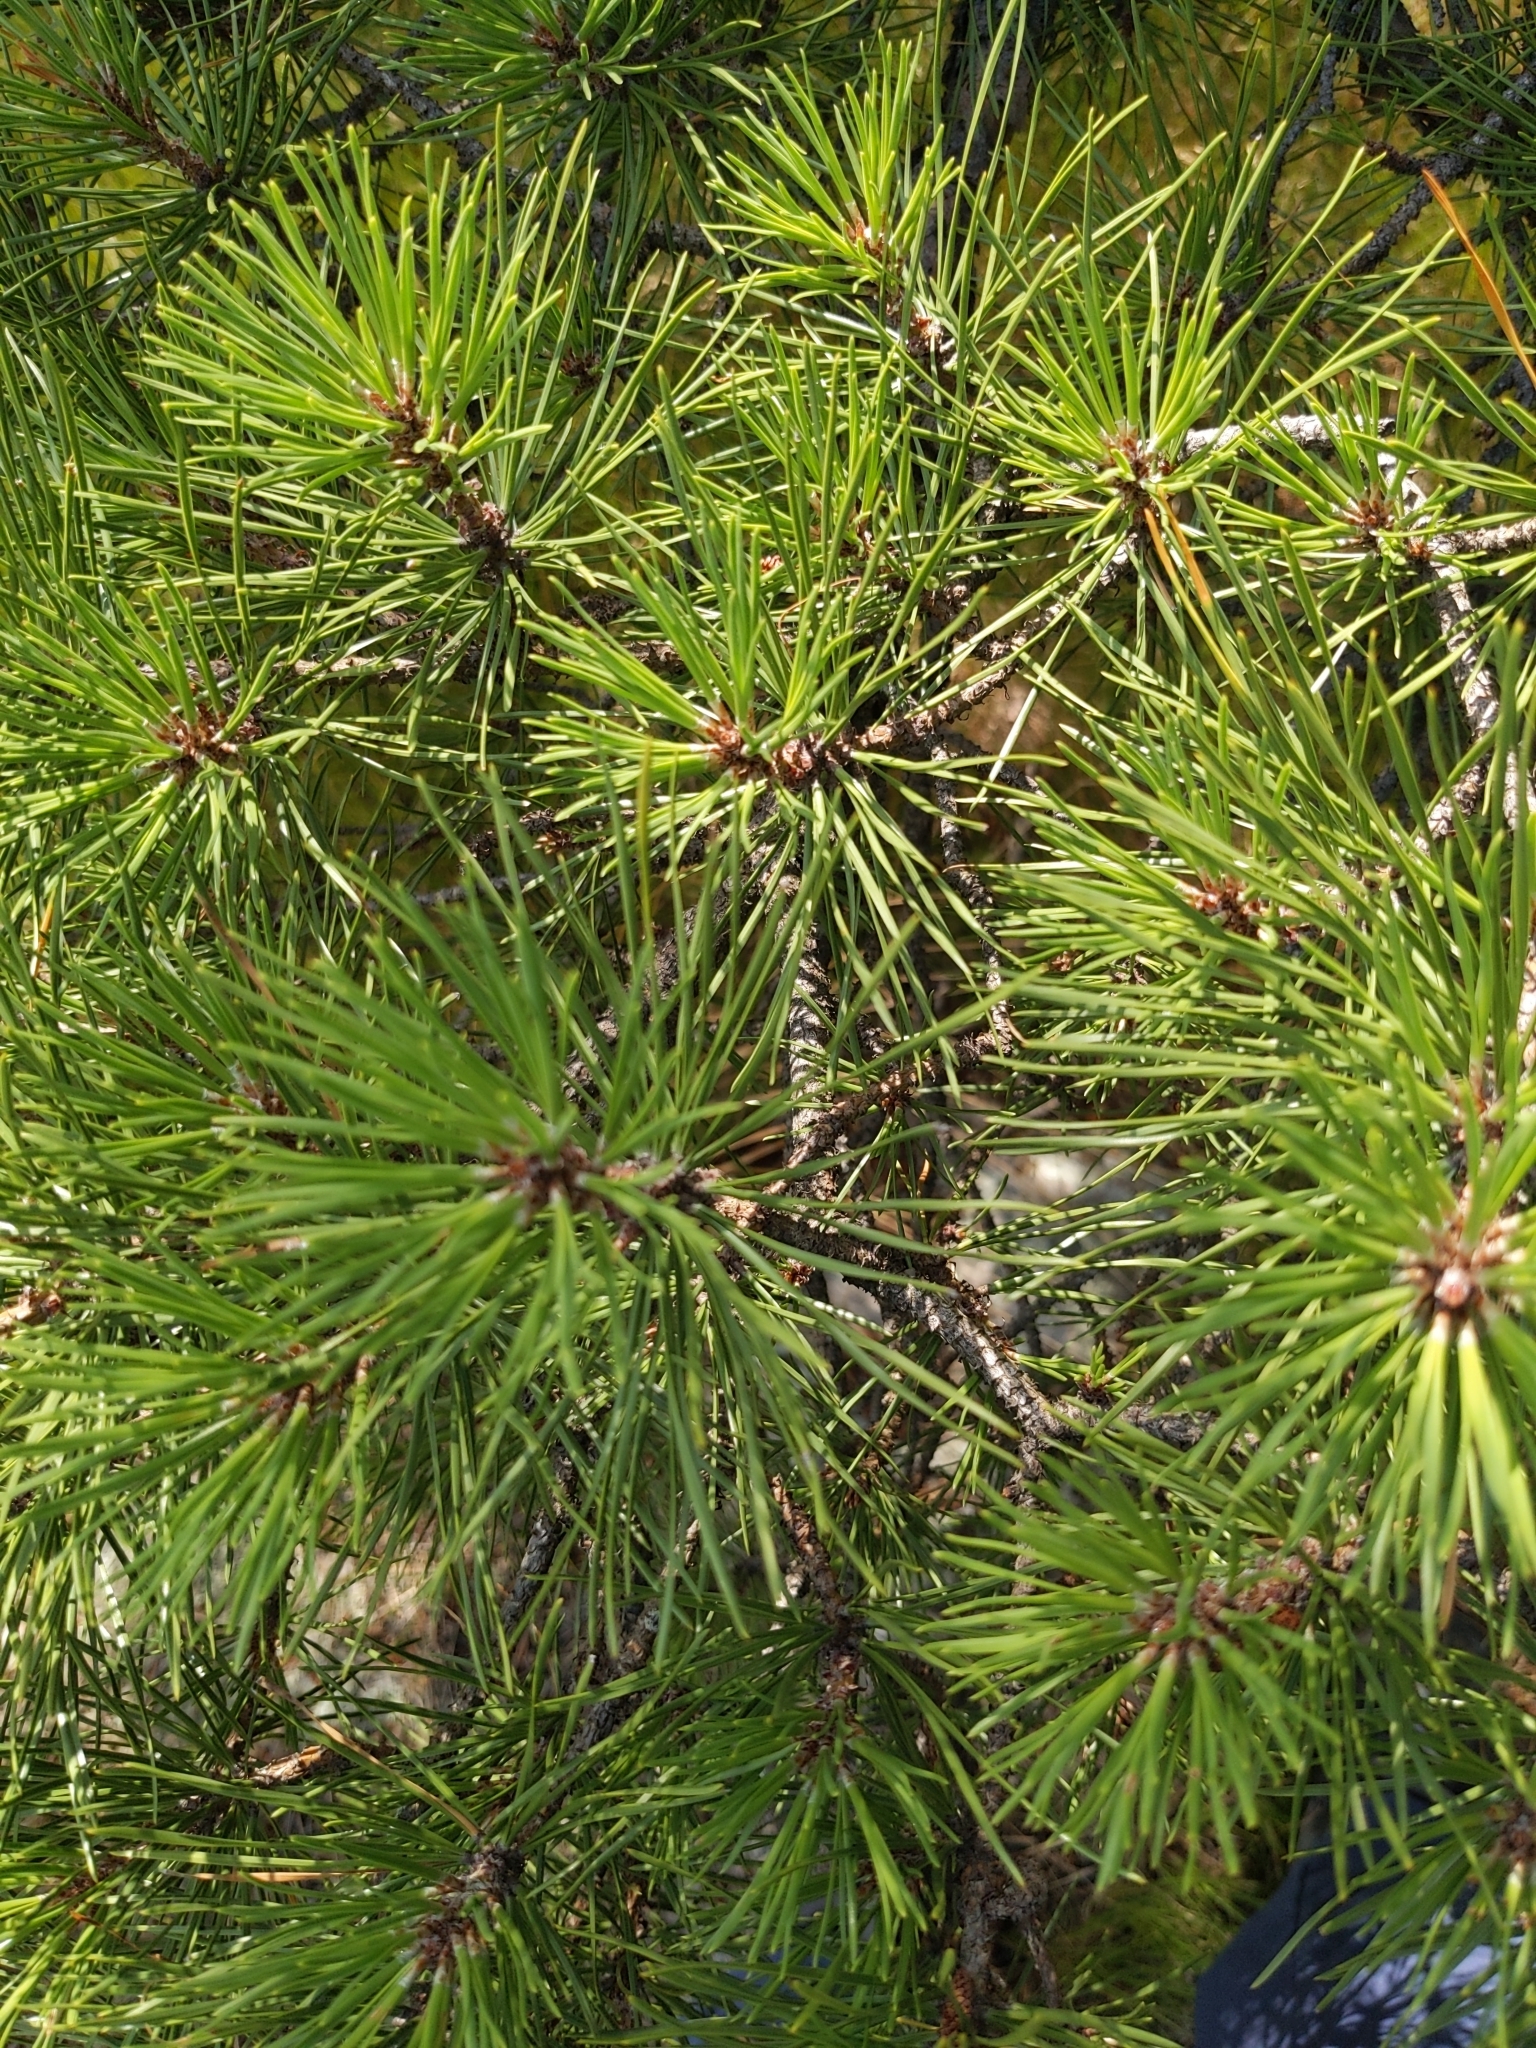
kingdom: Plantae
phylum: Tracheophyta
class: Pinopsida
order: Pinales
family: Pinaceae
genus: Pinus
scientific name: Pinus rigida
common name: Pitch pine
